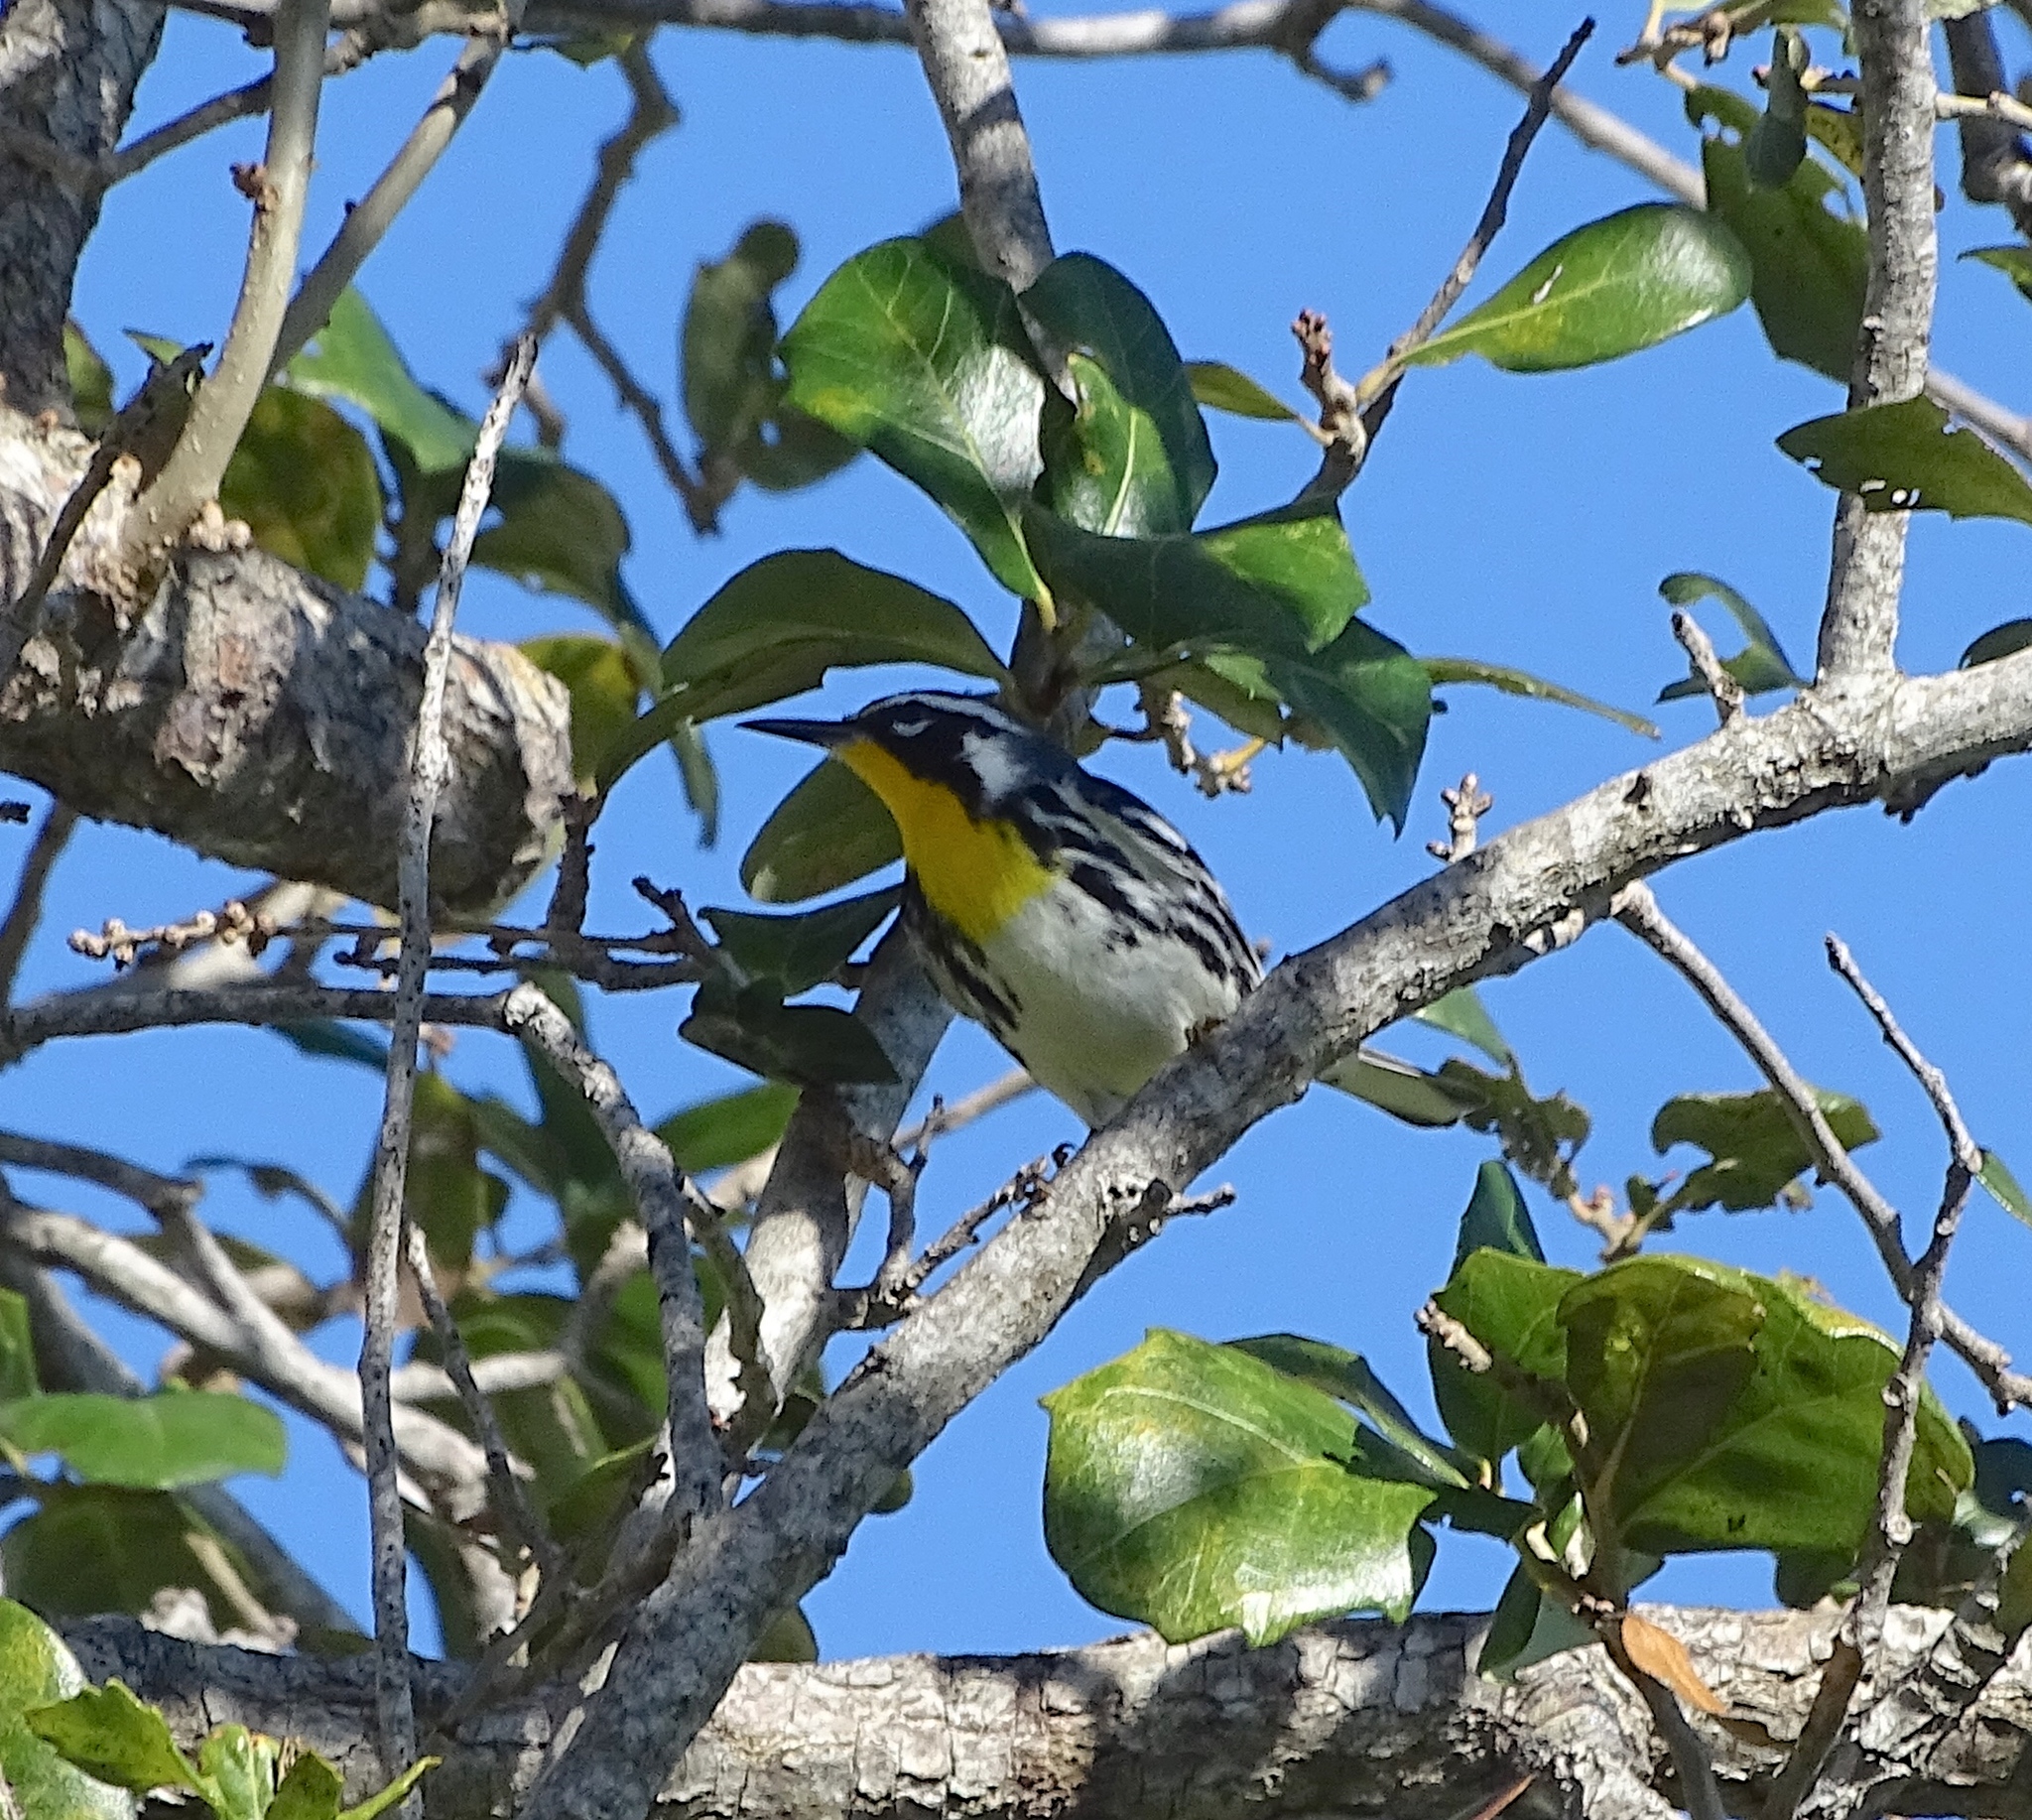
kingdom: Animalia
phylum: Chordata
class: Aves
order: Passeriformes
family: Parulidae
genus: Setophaga
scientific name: Setophaga dominica
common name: Yellow-throated warbler
